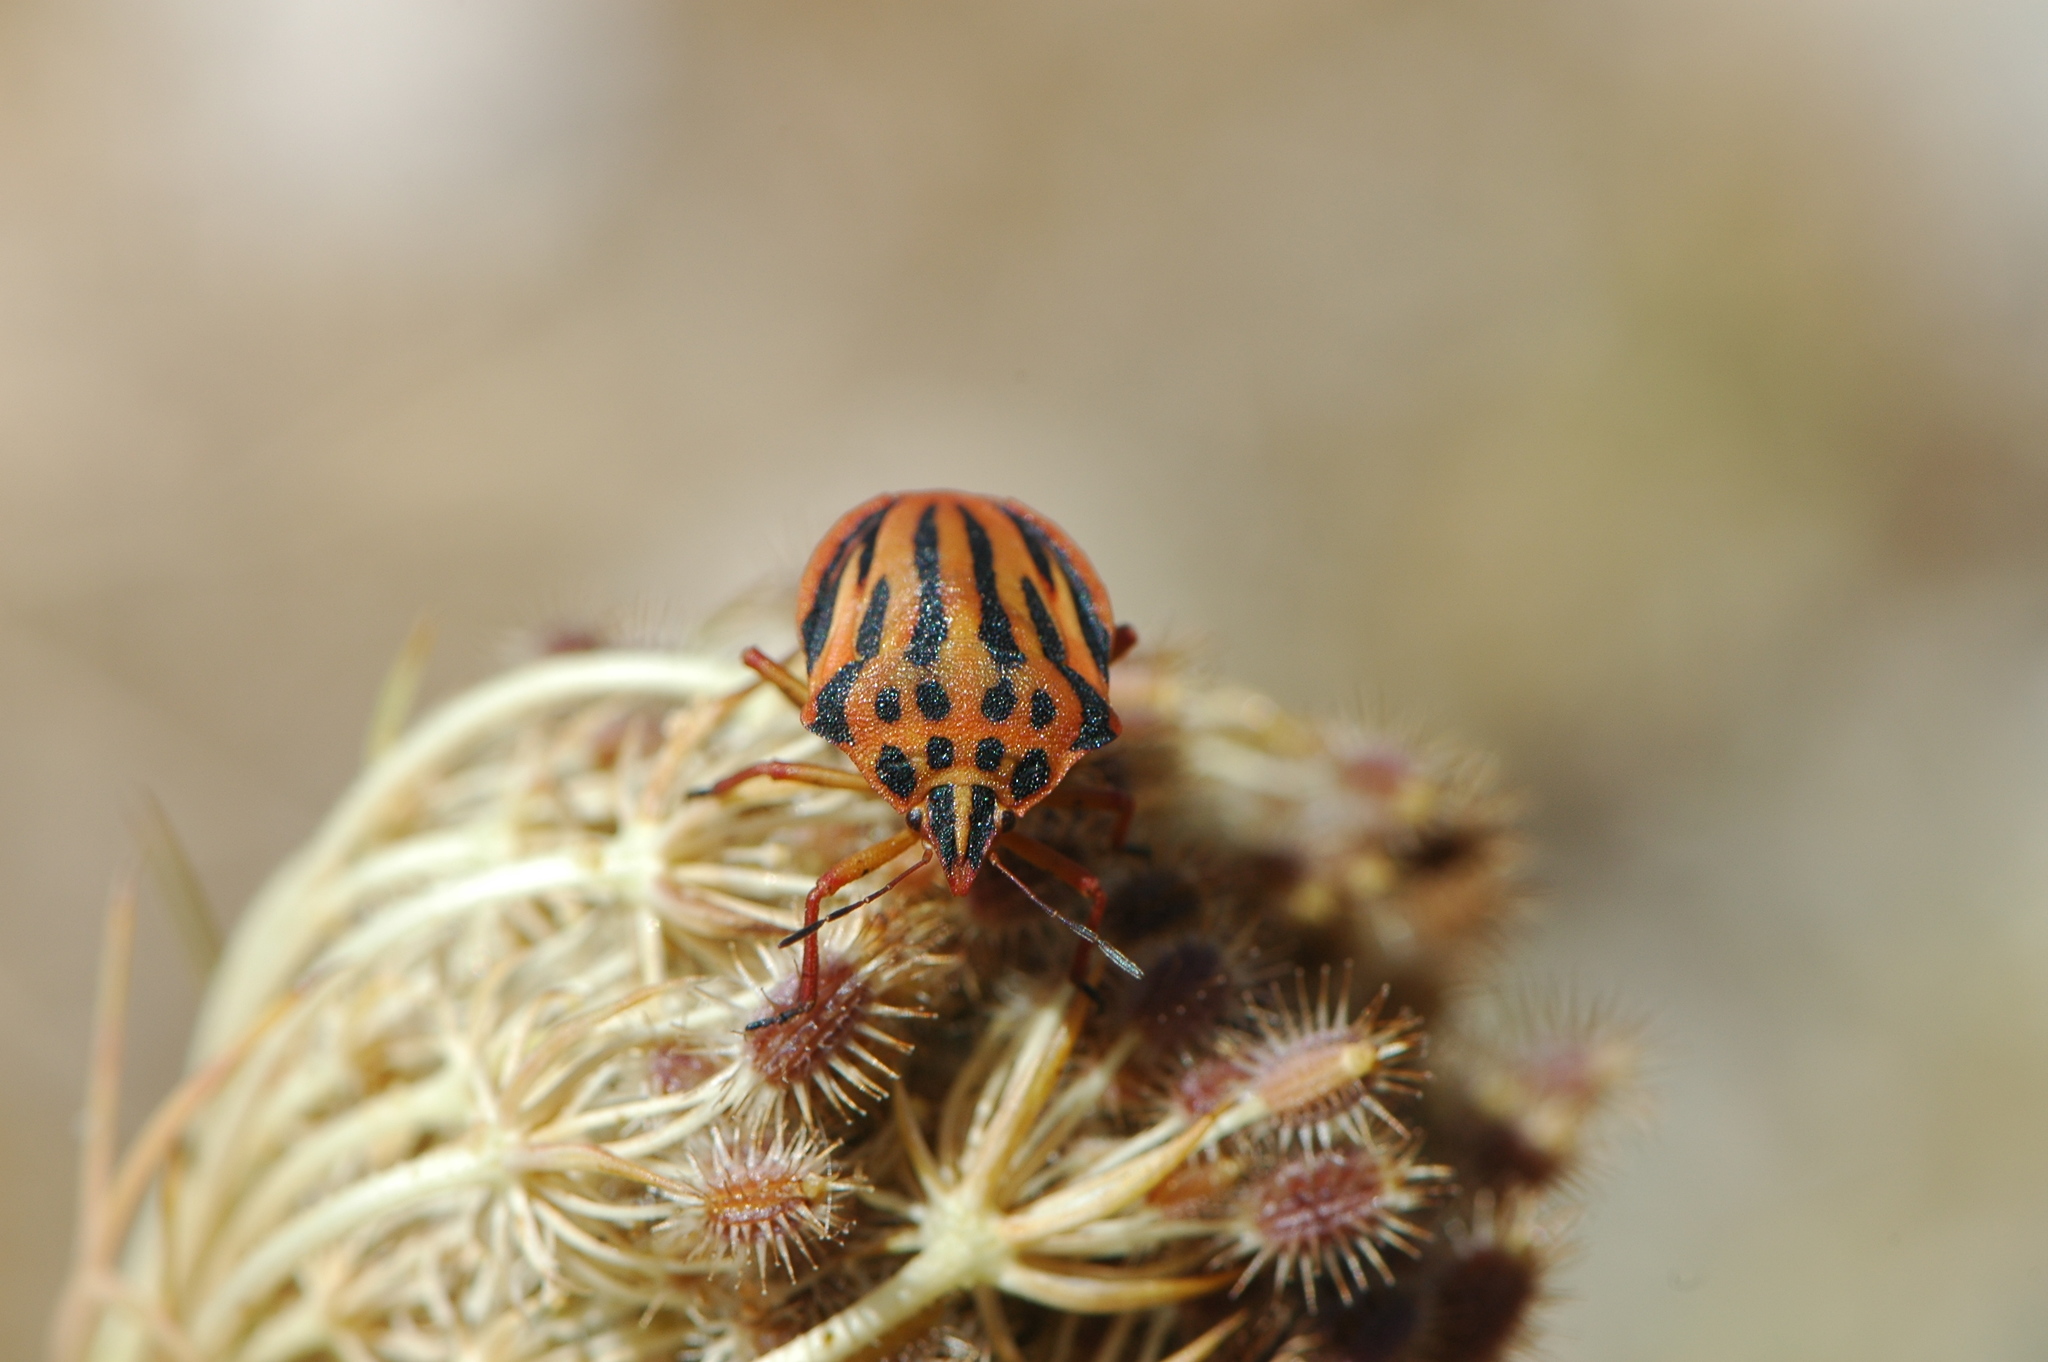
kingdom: Animalia
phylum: Arthropoda
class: Insecta
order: Hemiptera
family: Pentatomidae
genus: Graphosoma
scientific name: Graphosoma semipunctatum
